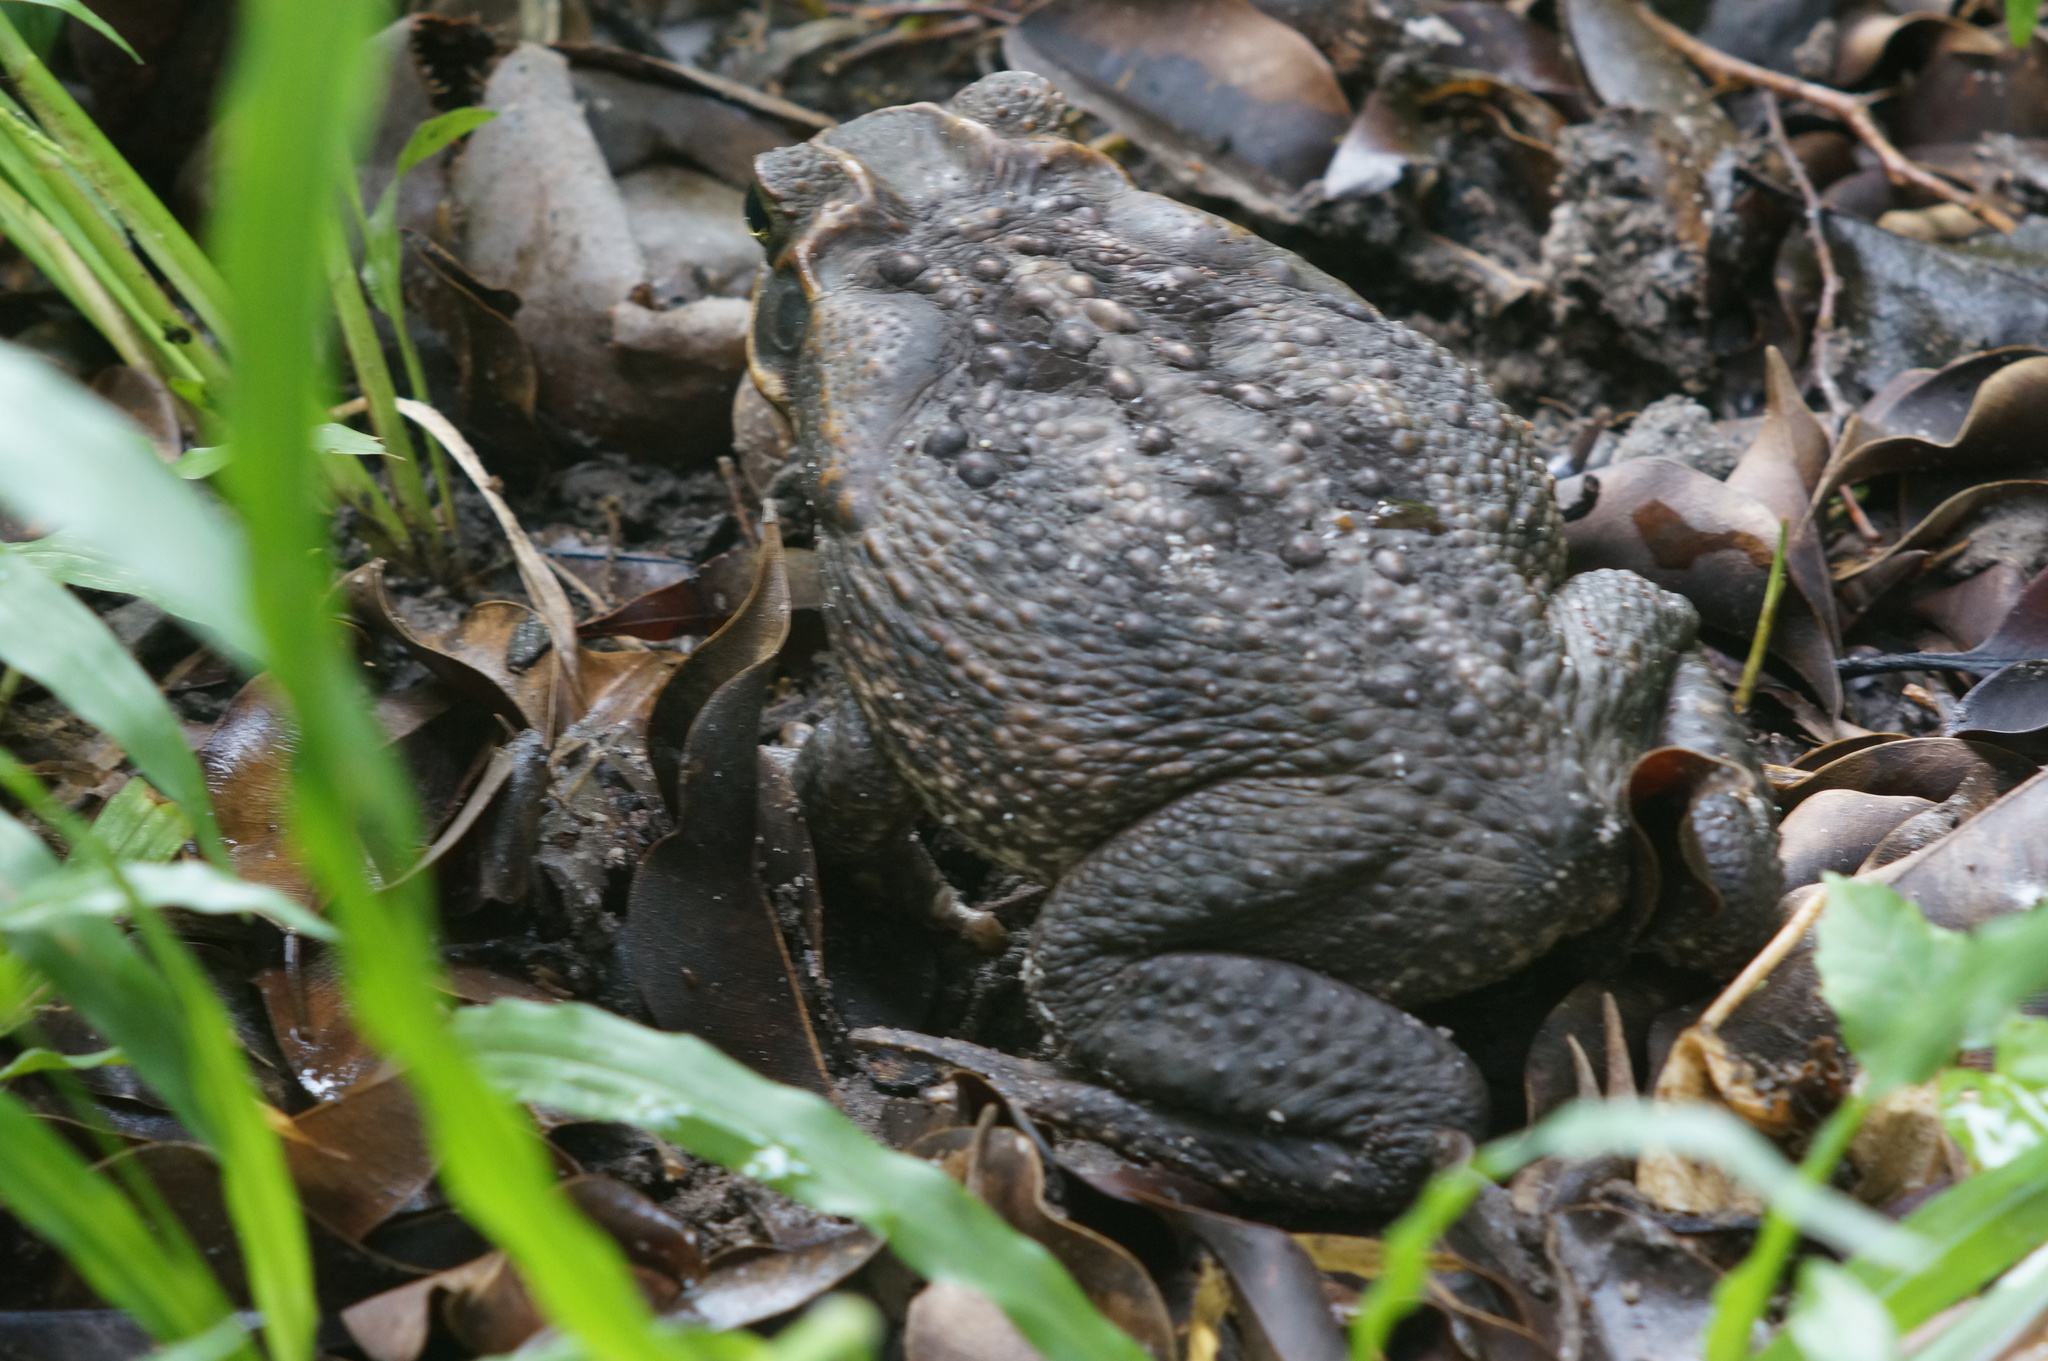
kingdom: Animalia
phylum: Chordata
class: Amphibia
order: Anura
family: Bufonidae
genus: Rhinella
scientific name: Rhinella marina
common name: Cane toad
